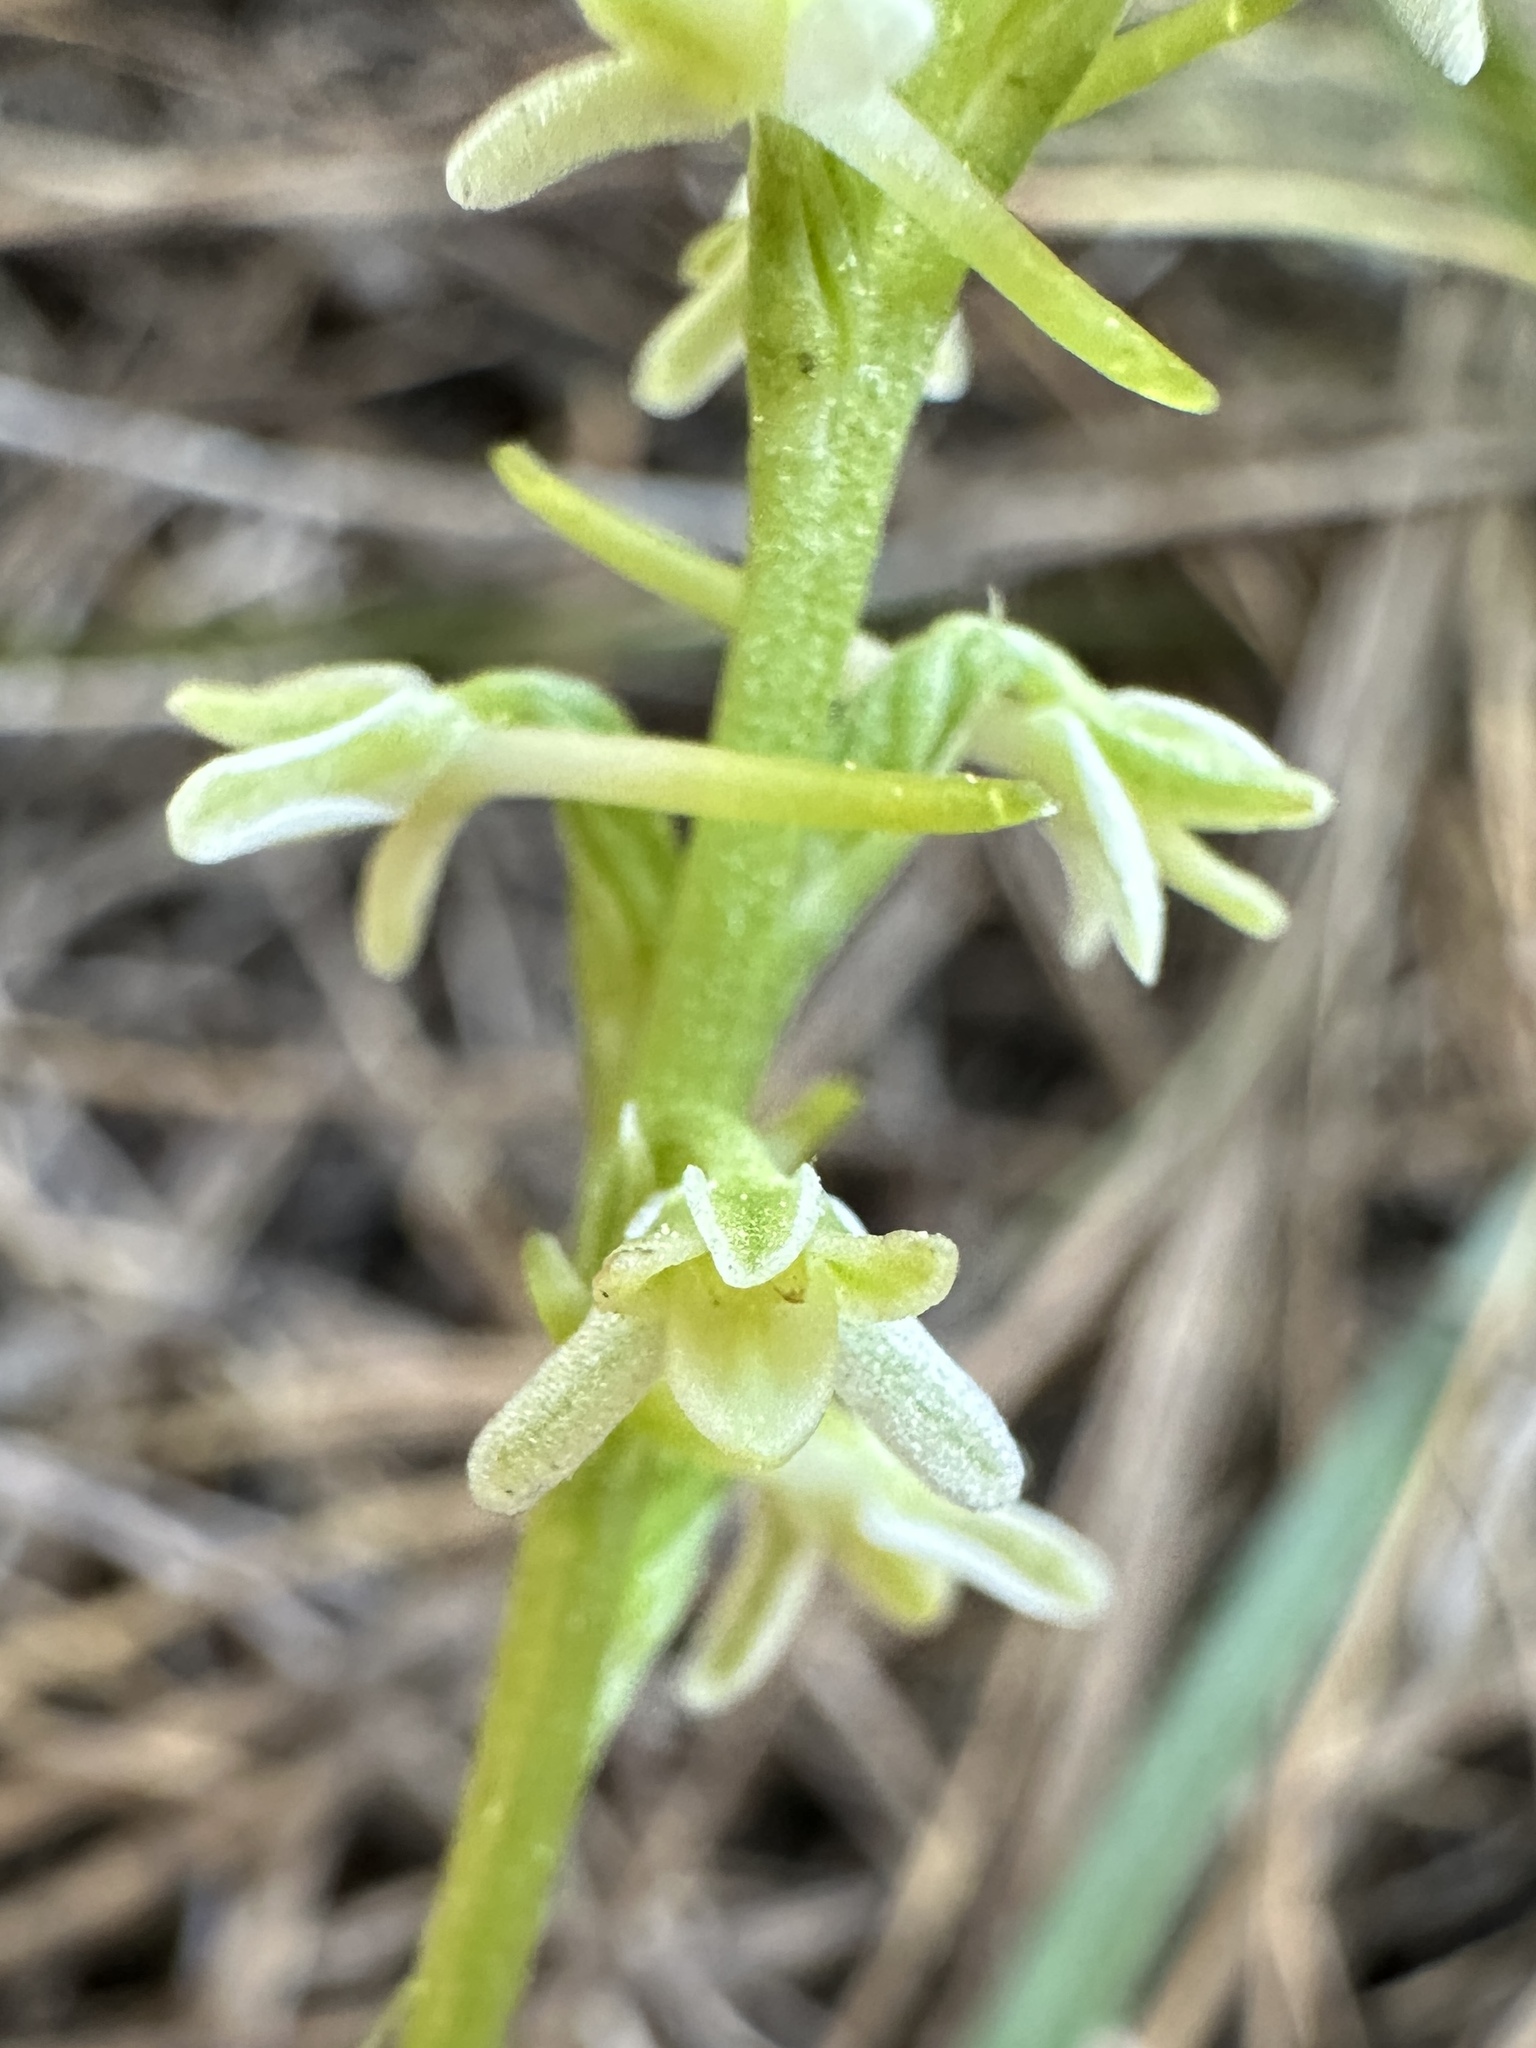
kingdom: Plantae
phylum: Tracheophyta
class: Liliopsida
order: Asparagales
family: Orchidaceae
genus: Platanthera
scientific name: Platanthera transversa
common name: Royal rein orchid
